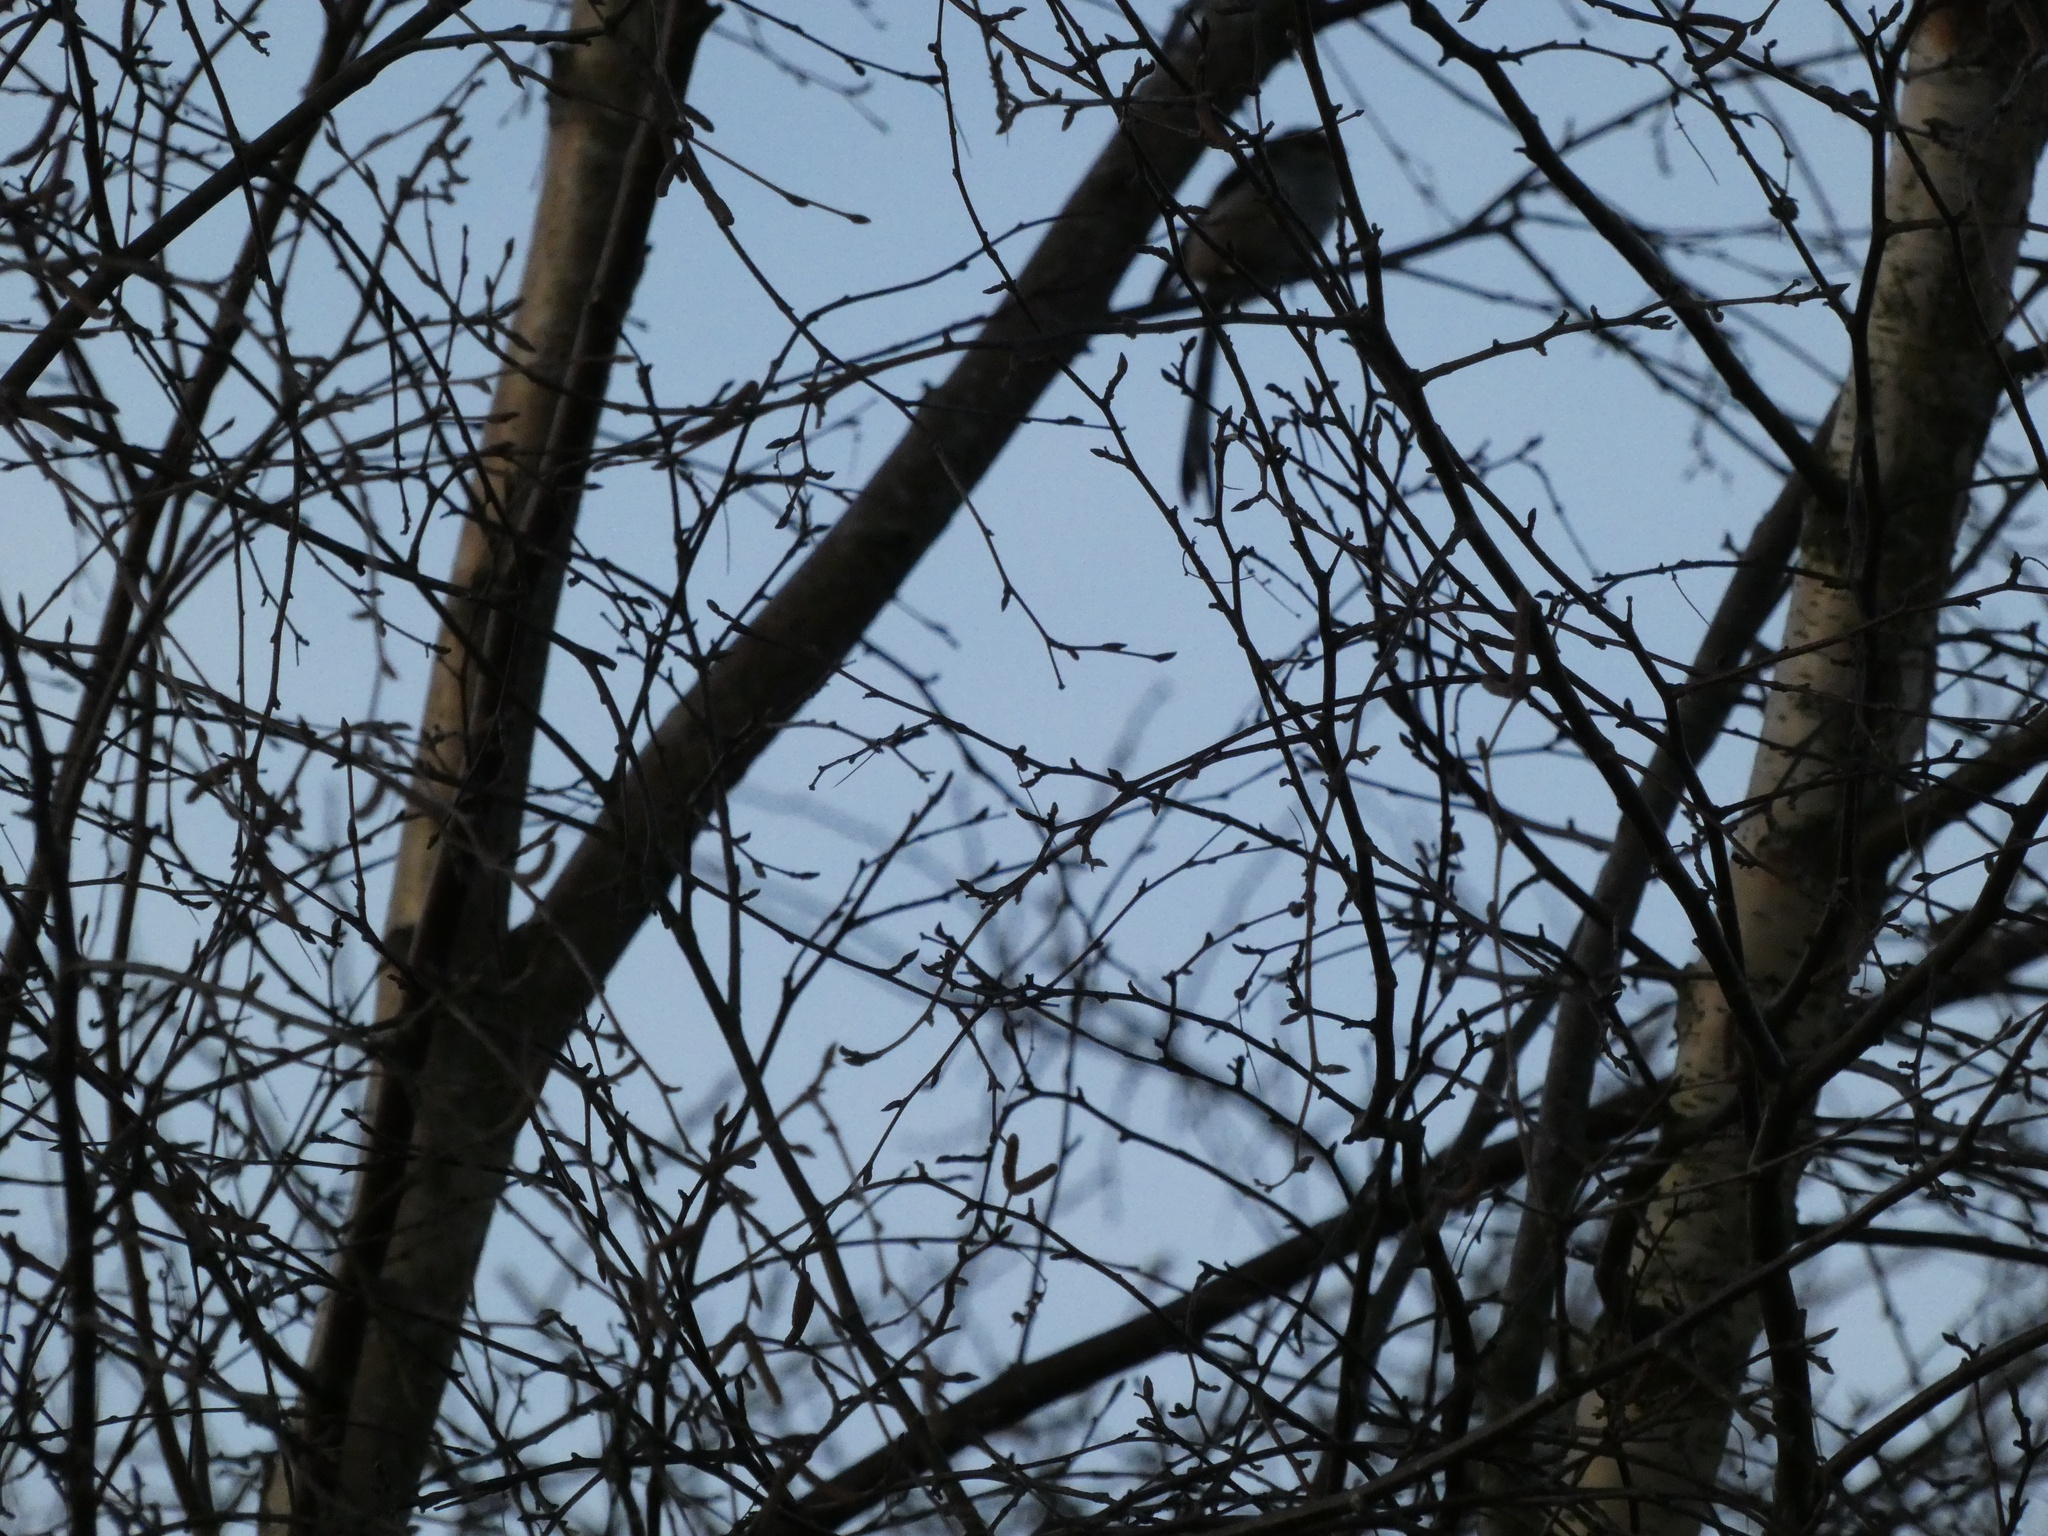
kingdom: Animalia
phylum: Chordata
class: Aves
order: Passeriformes
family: Aegithalidae
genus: Aegithalos
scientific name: Aegithalos caudatus
